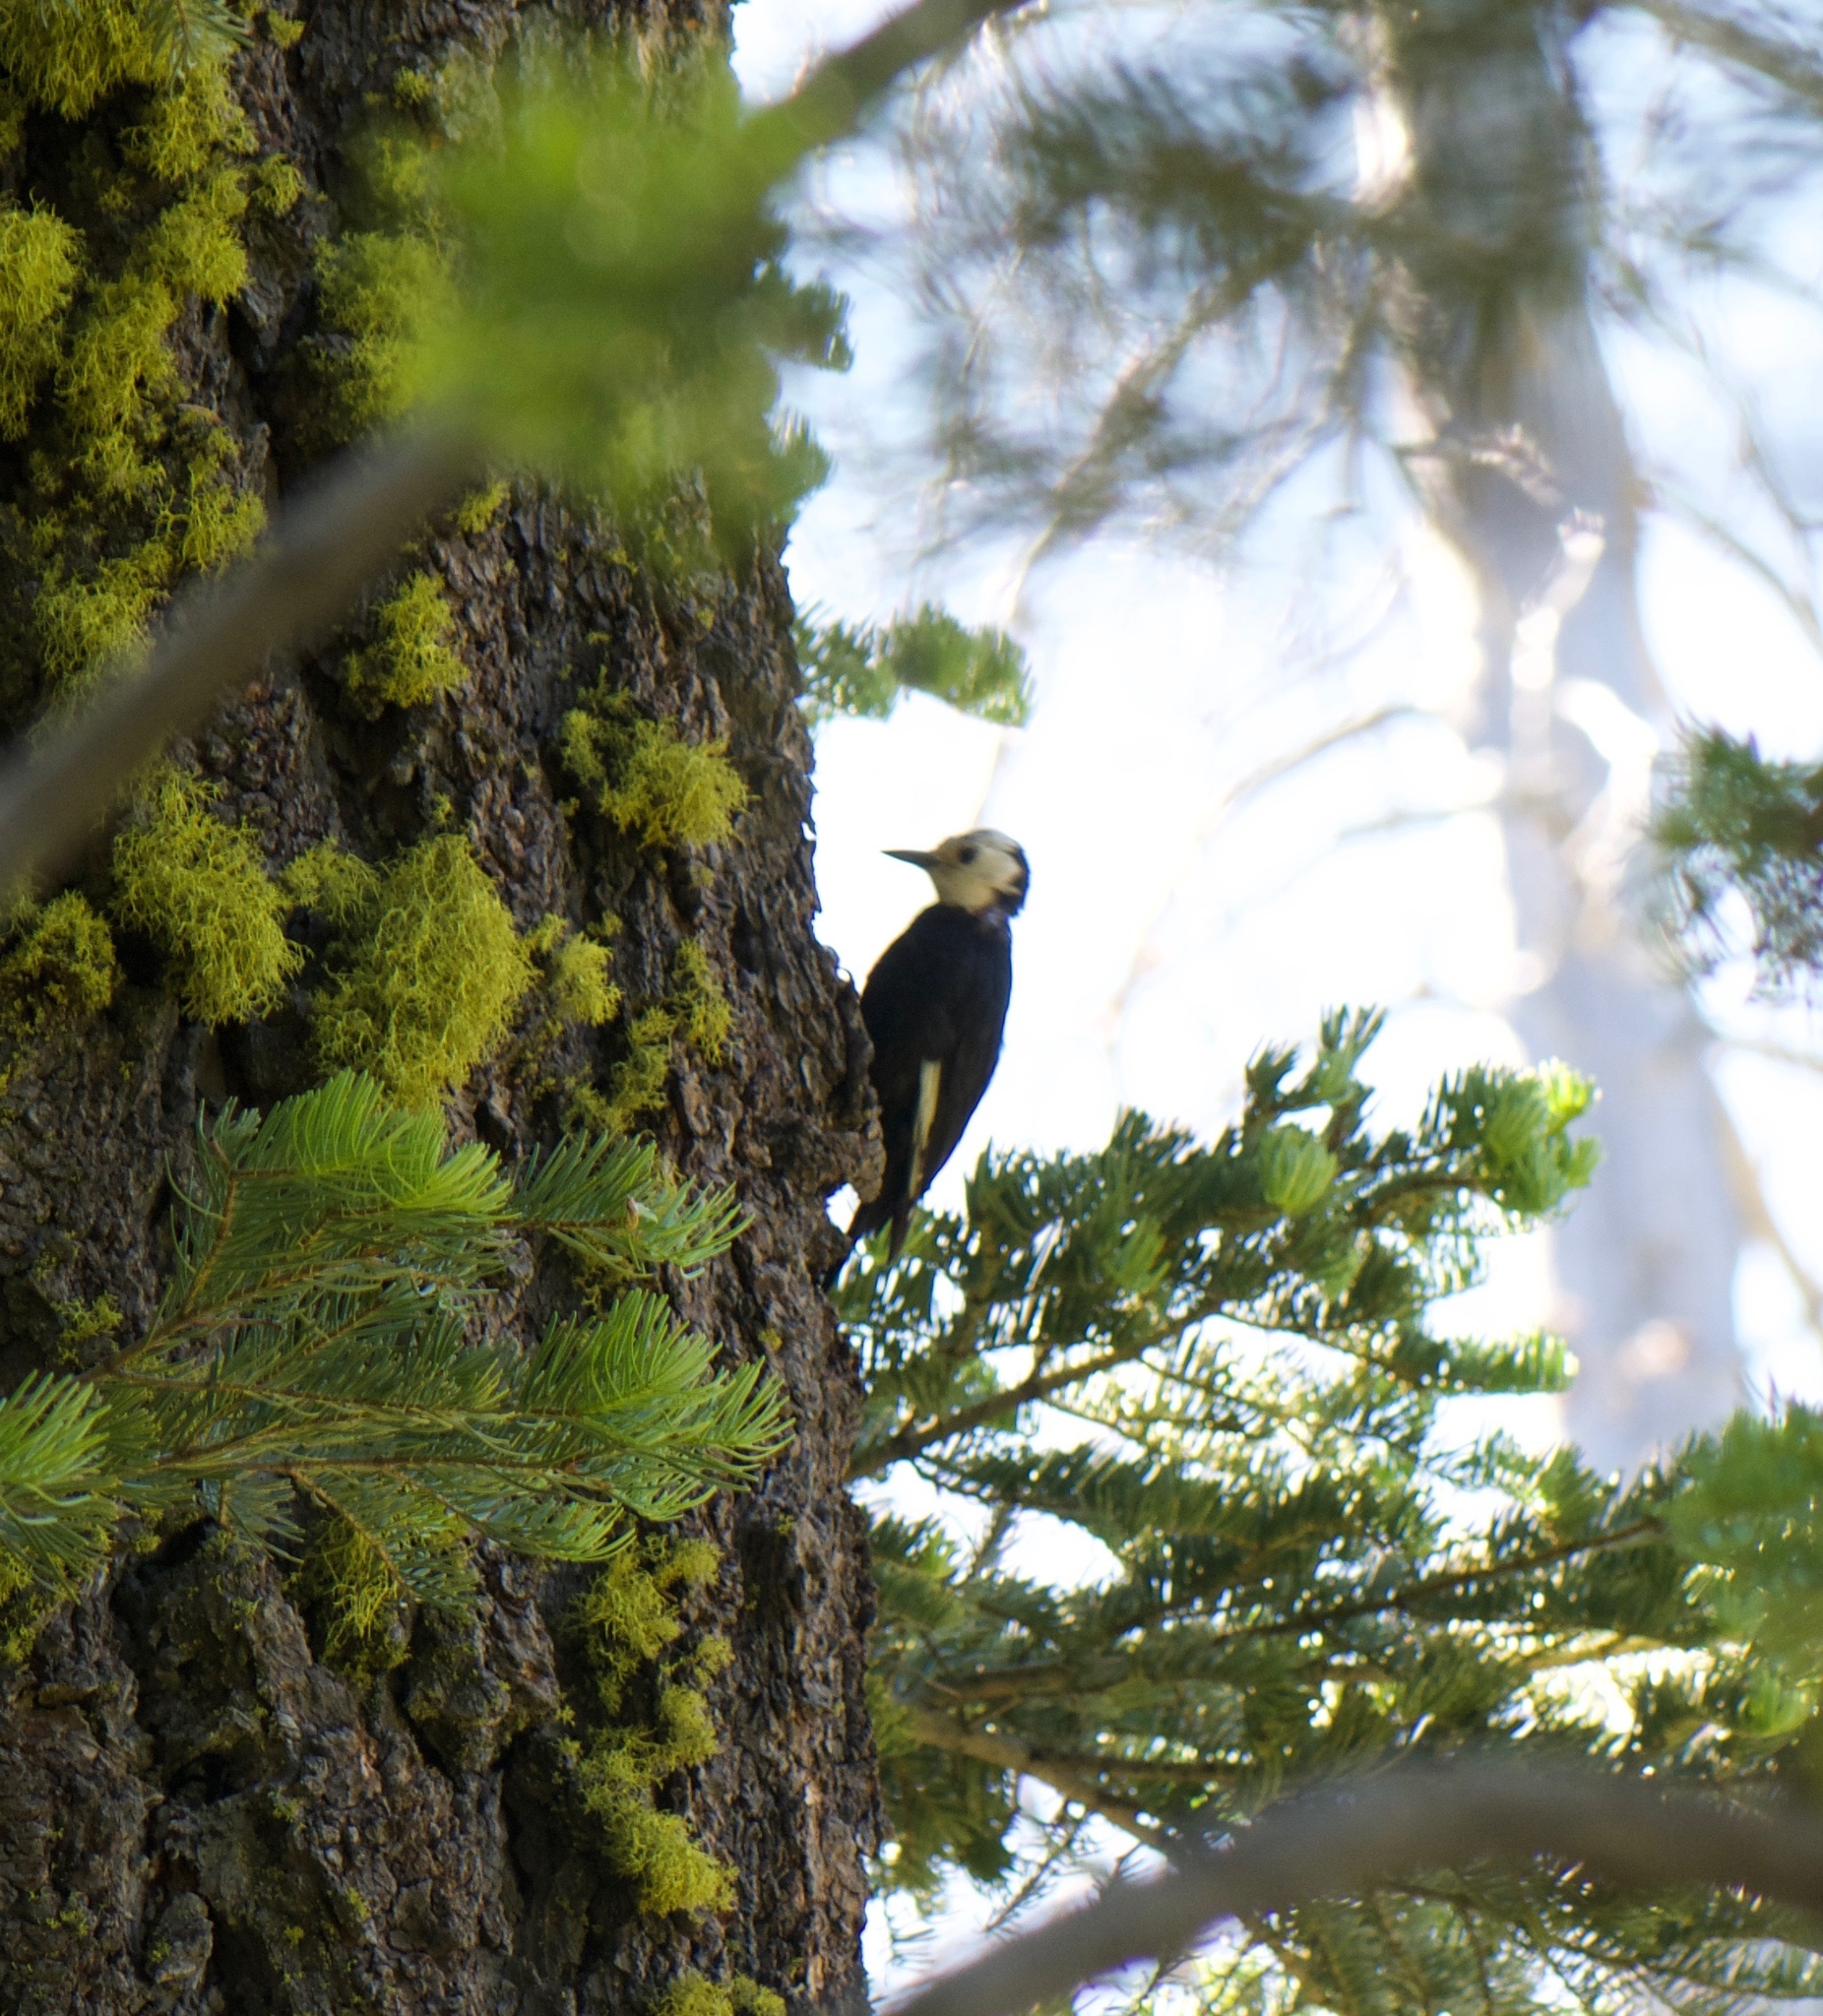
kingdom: Animalia
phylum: Chordata
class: Aves
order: Piciformes
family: Picidae
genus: Leuconotopicus
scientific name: Leuconotopicus albolarvatus
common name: White-headed woodpecker
